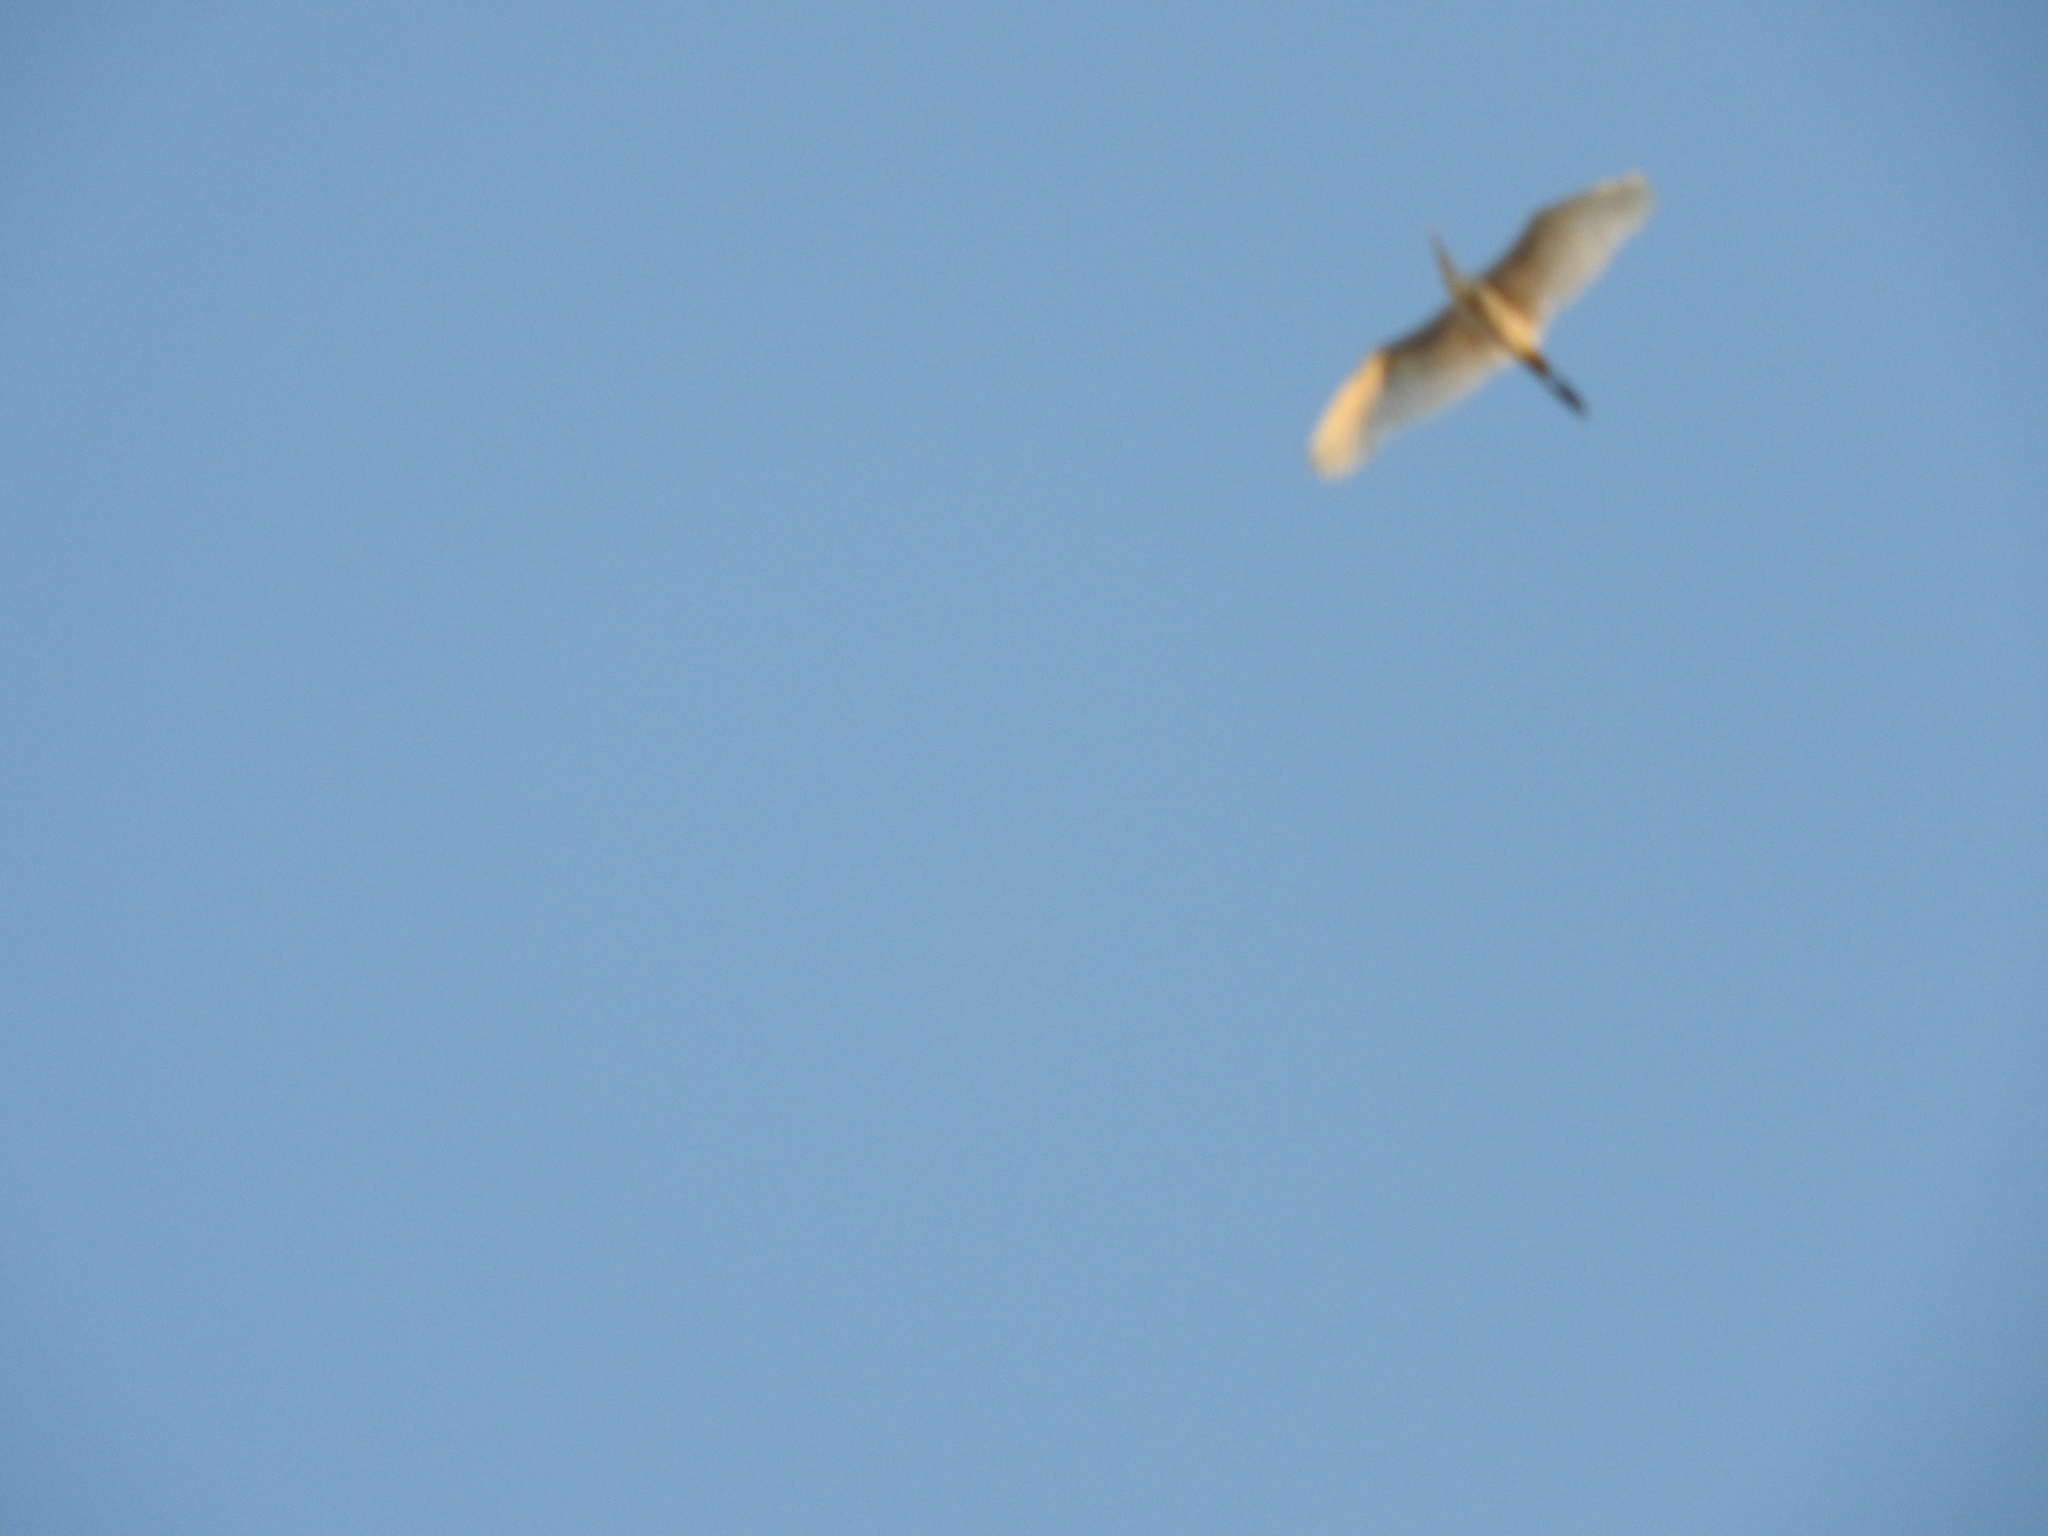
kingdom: Animalia
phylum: Chordata
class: Aves
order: Pelecaniformes
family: Ardeidae
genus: Bubulcus
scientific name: Bubulcus ibis
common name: Cattle egret
